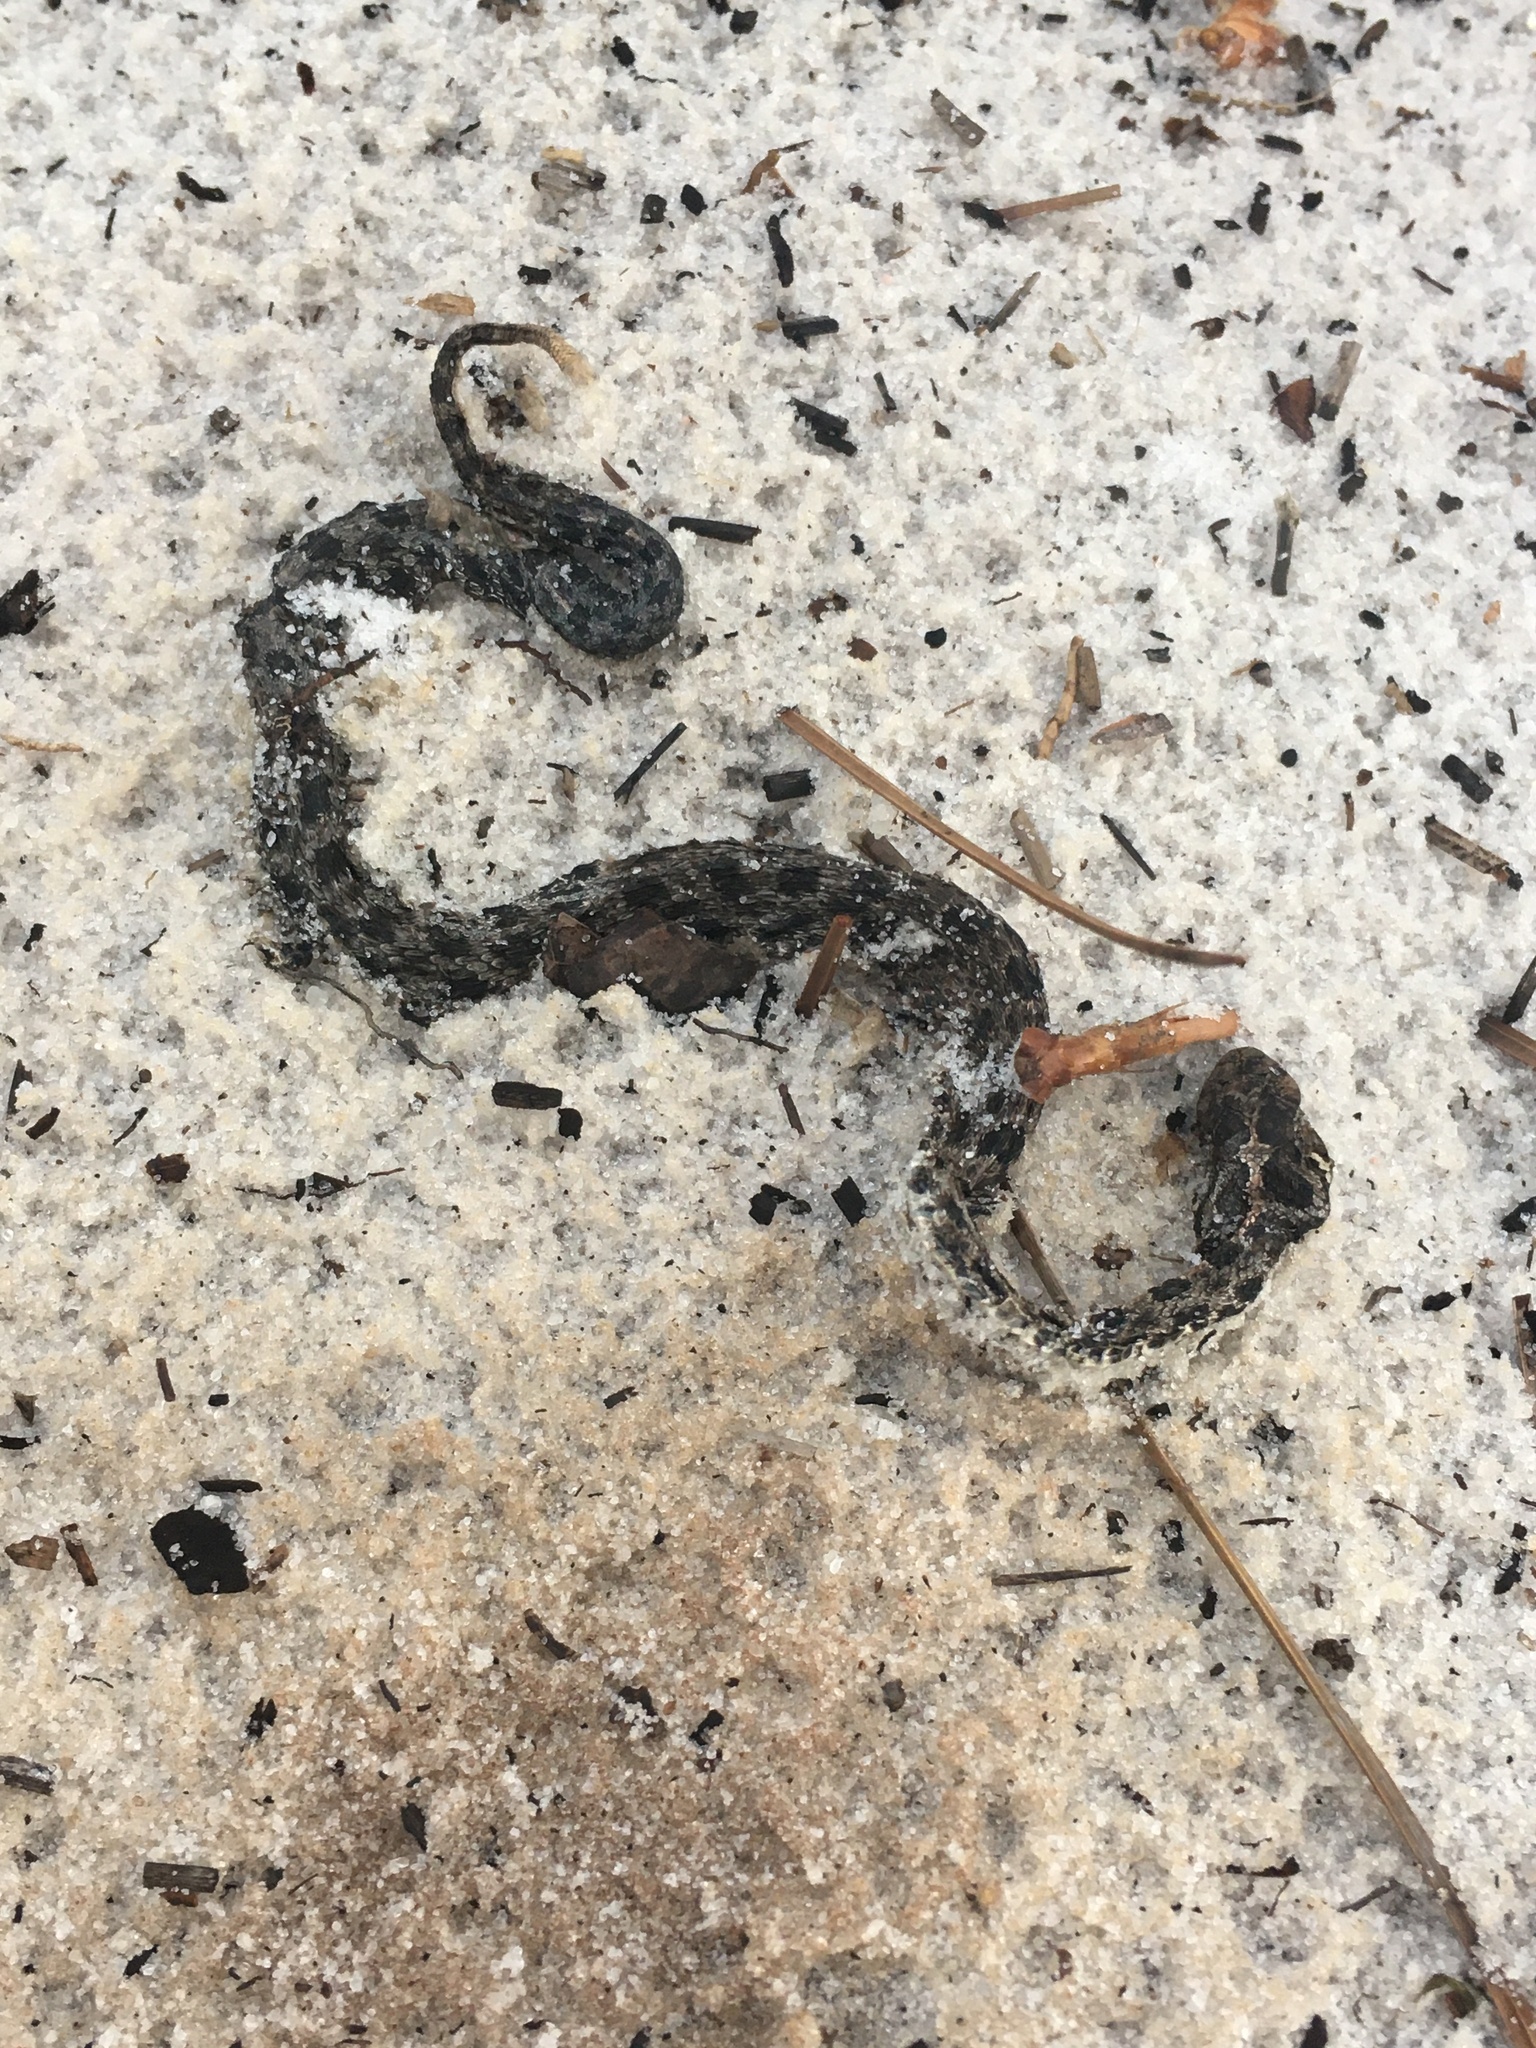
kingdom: Animalia
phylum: Chordata
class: Squamata
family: Viperidae
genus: Sistrurus
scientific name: Sistrurus miliarius
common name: Pygmy rattlesnake
